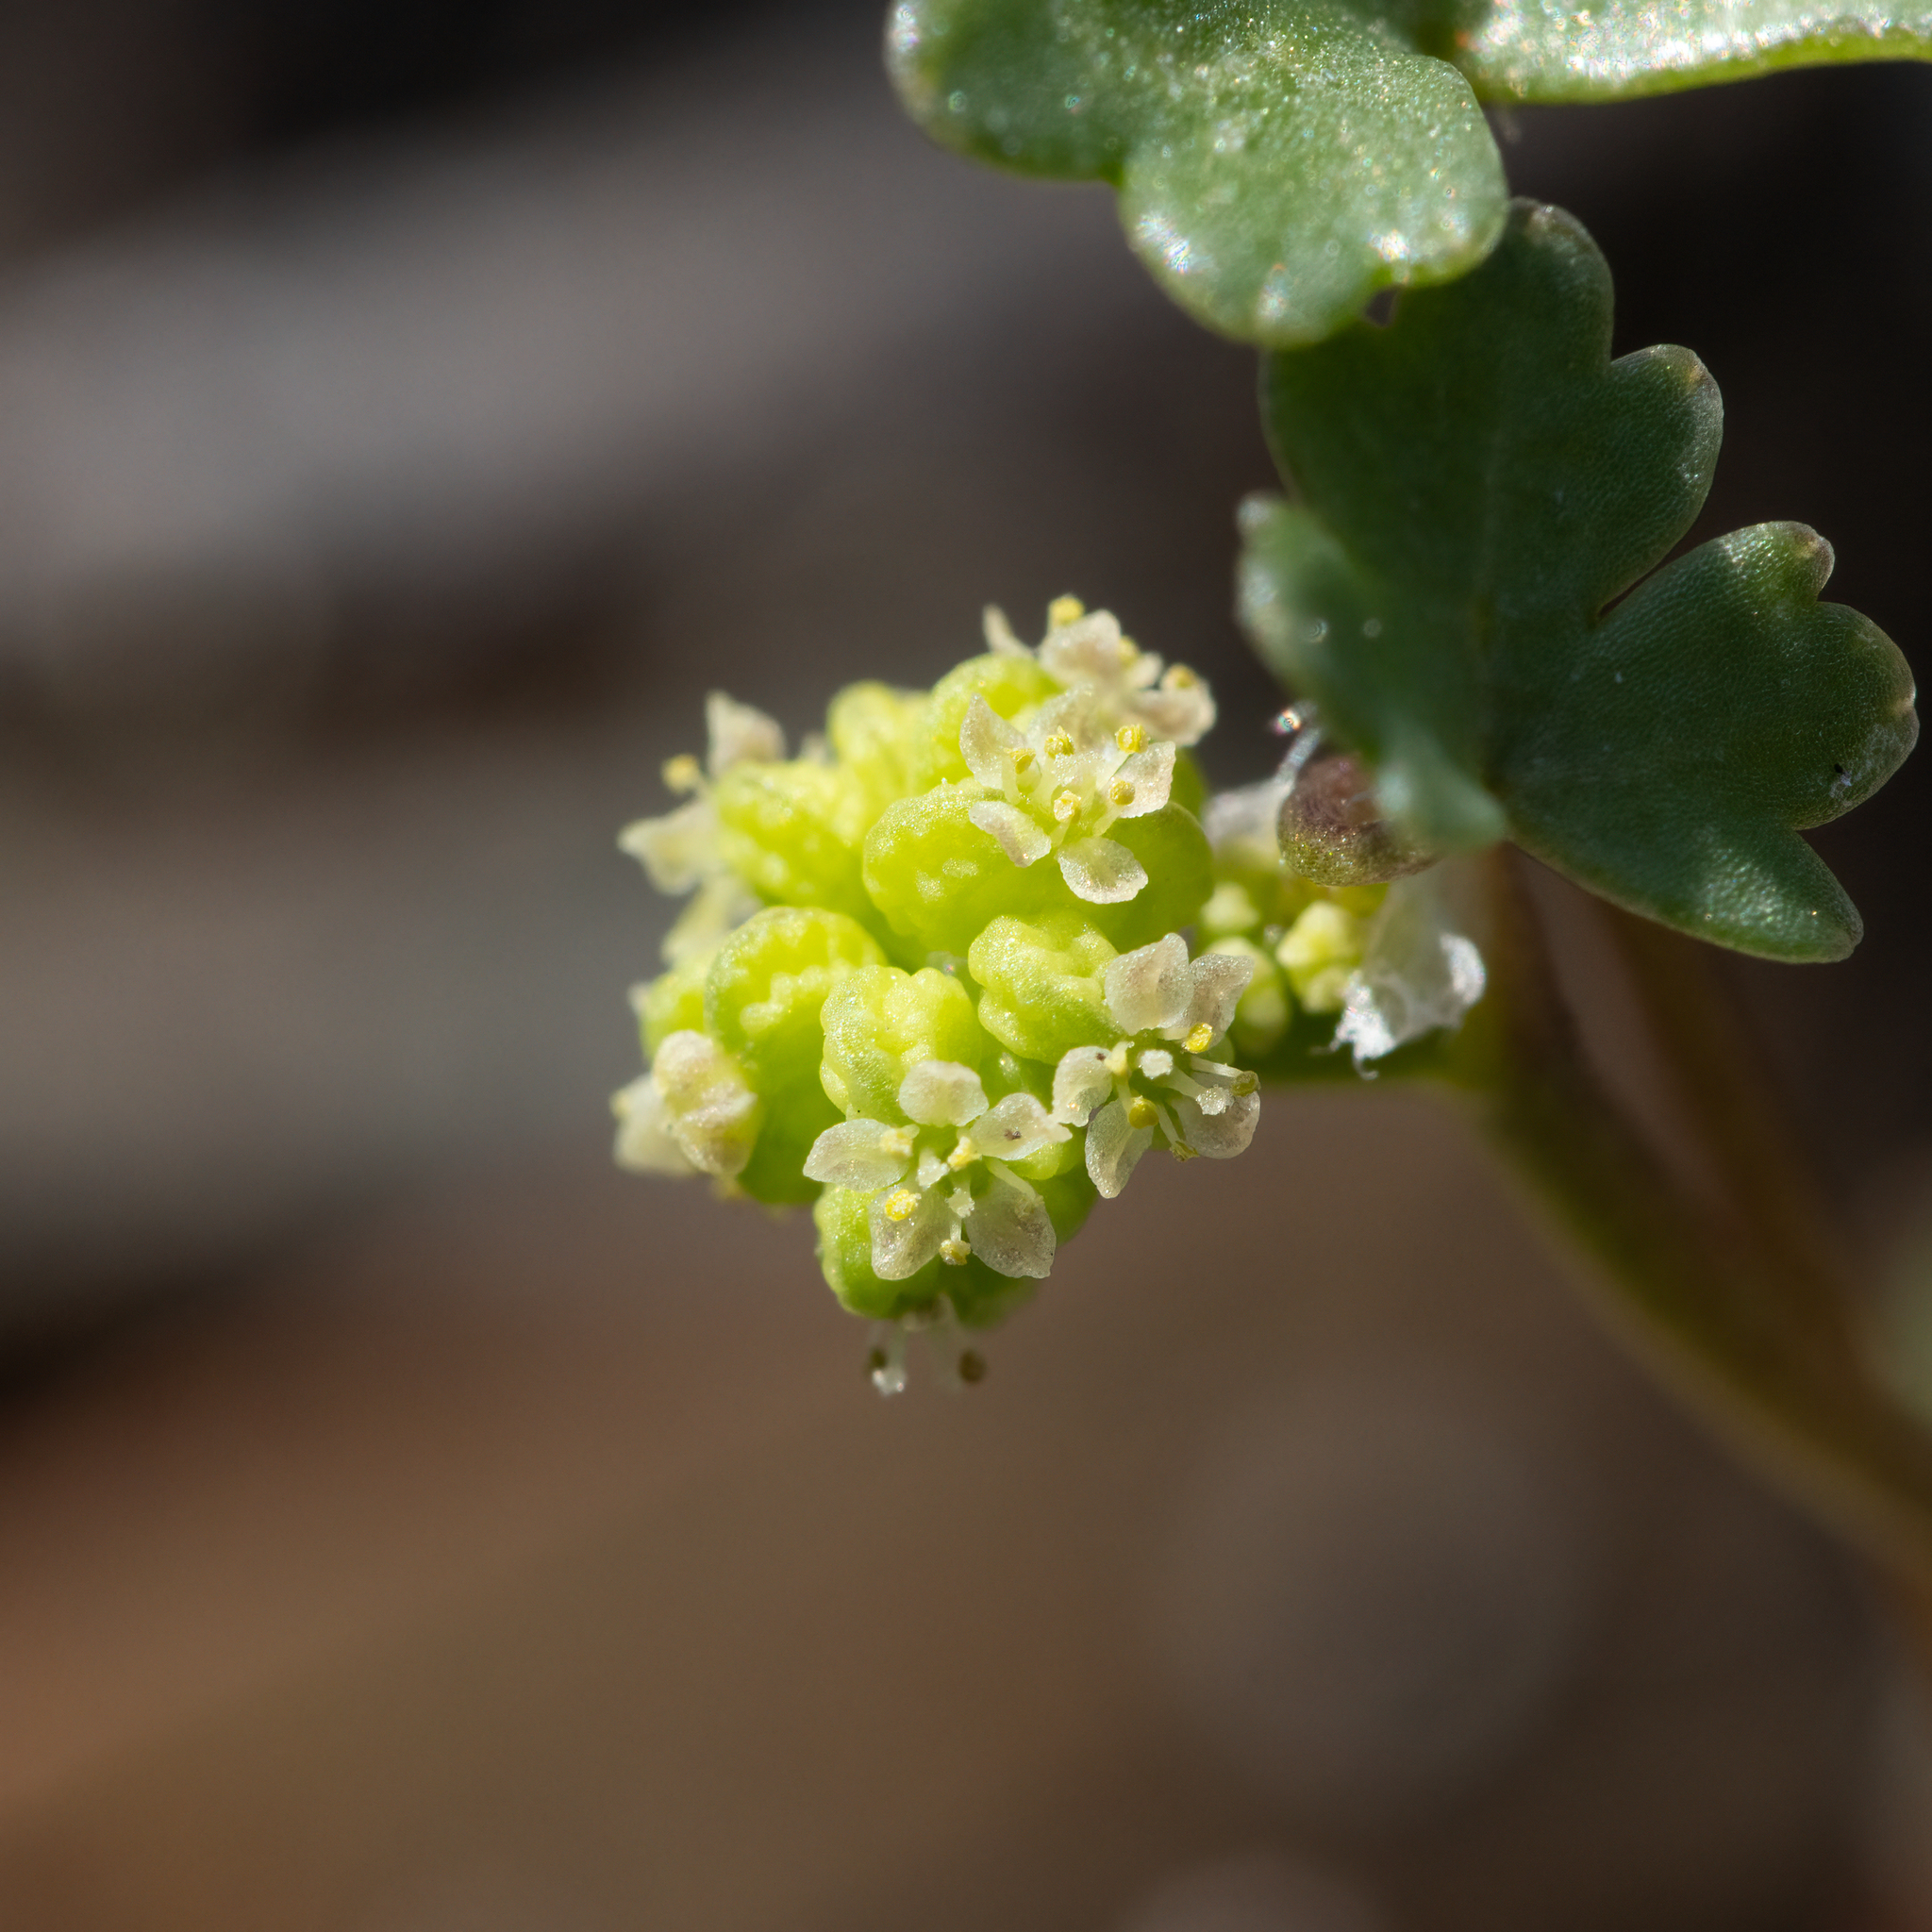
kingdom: Plantae
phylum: Tracheophyta
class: Magnoliopsida
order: Apiales
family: Araliaceae
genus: Hydrocotyle
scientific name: Hydrocotyle hirta
